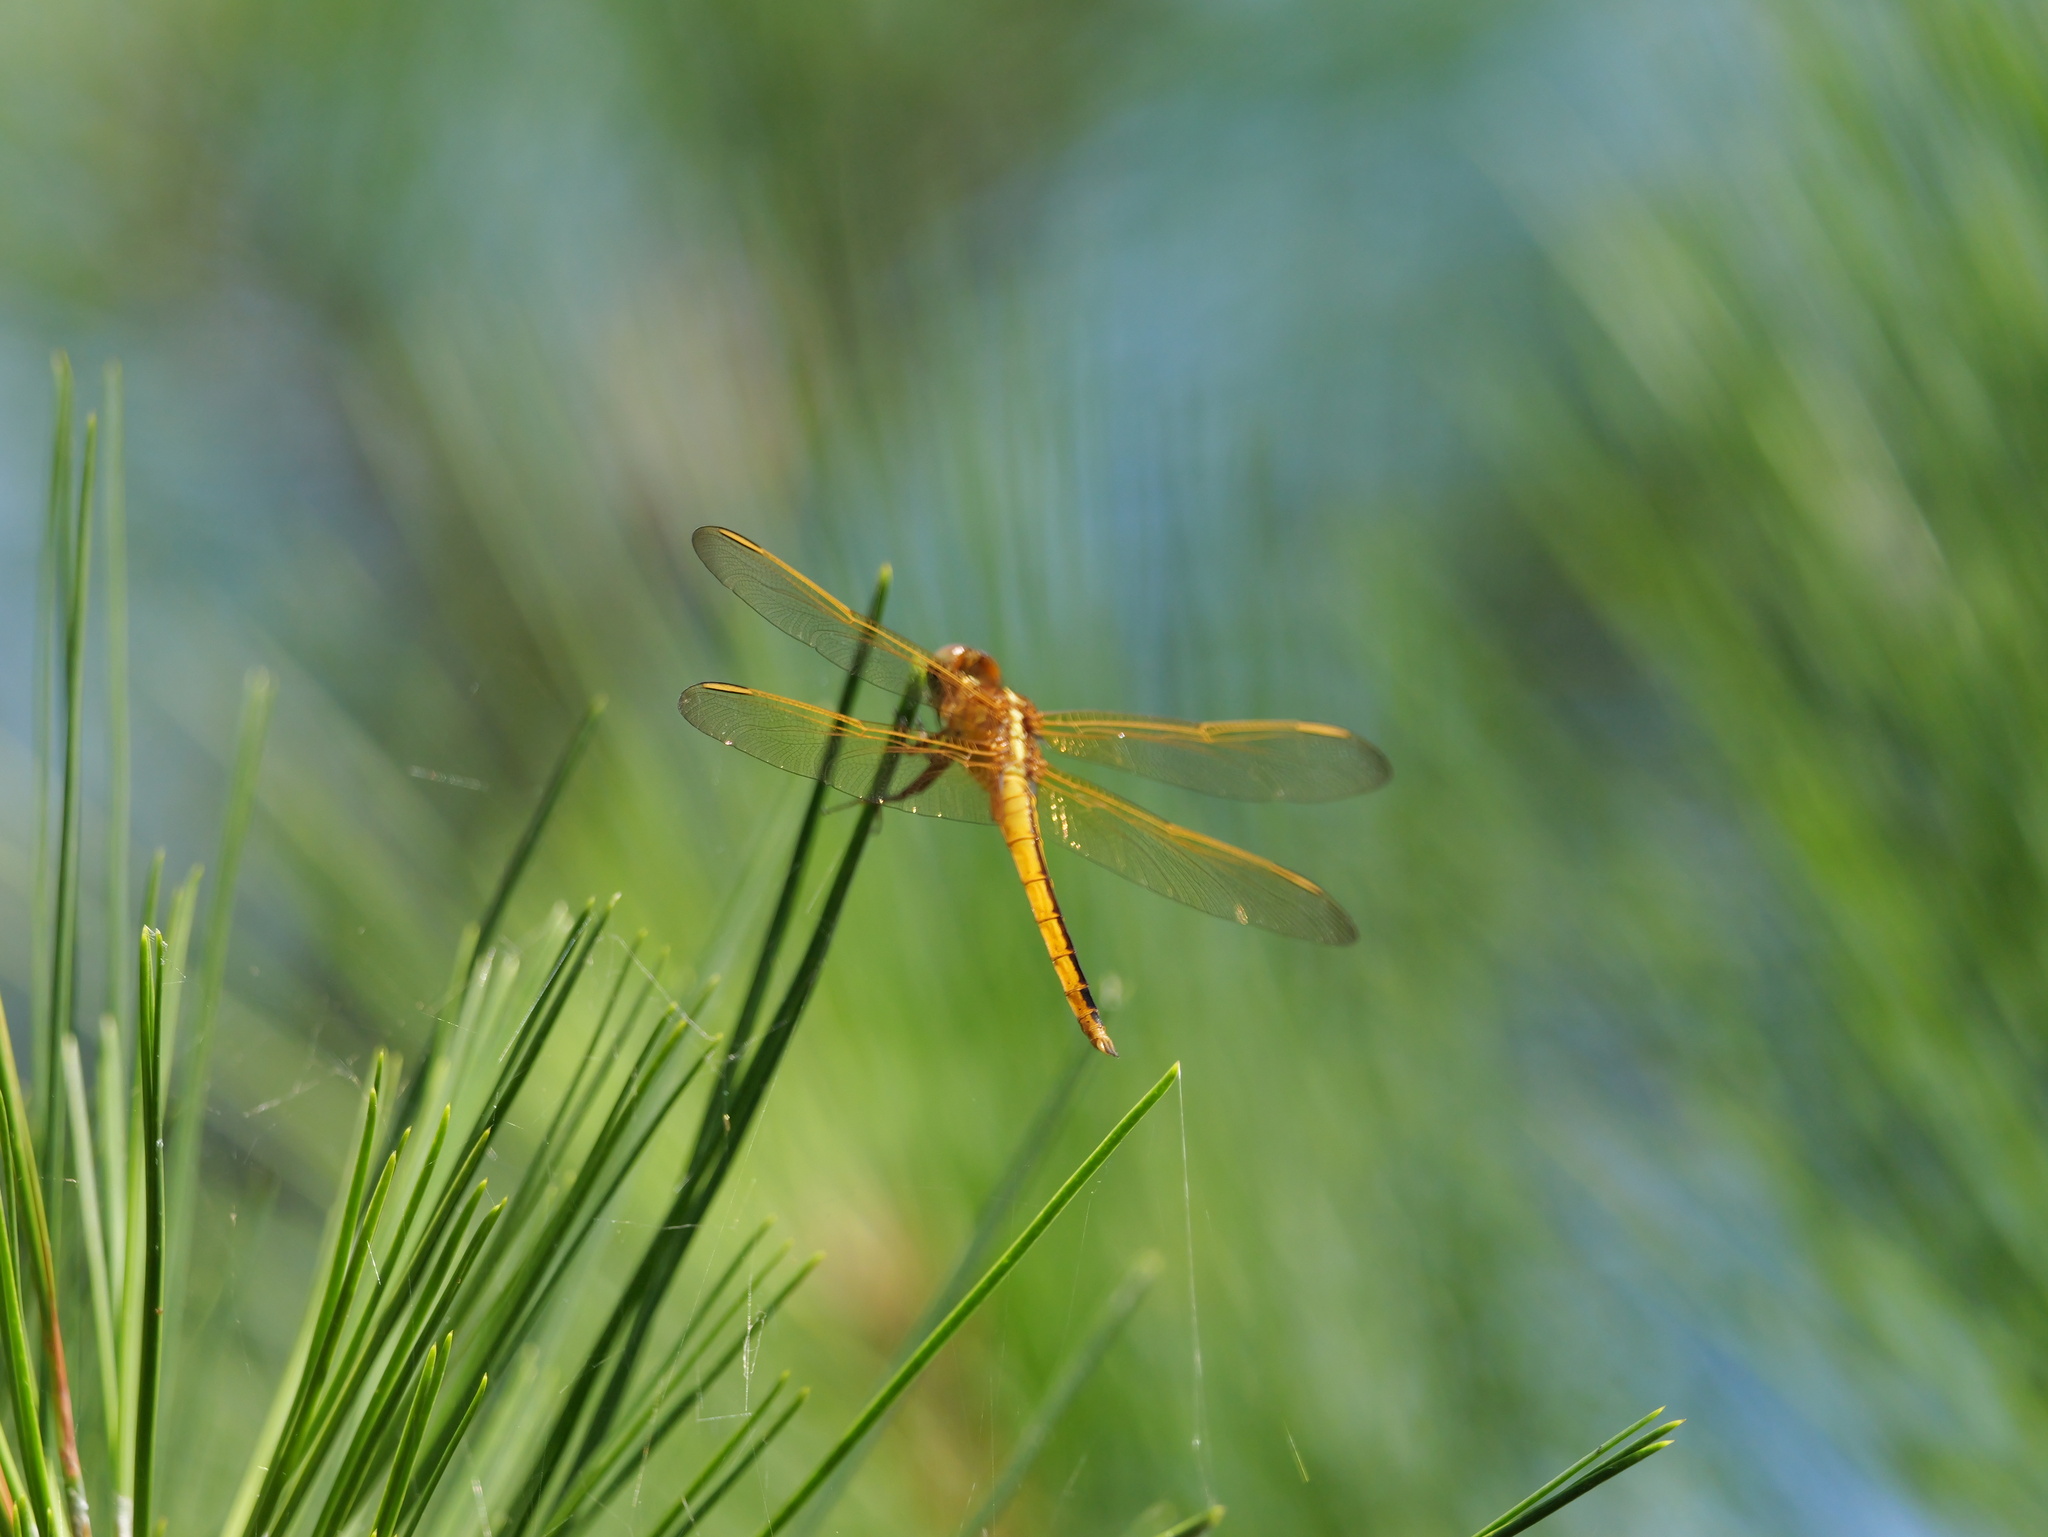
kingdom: Animalia
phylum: Arthropoda
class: Insecta
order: Odonata
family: Libellulidae
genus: Libellula
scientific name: Libellula needhami
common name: Needham's skimmer
